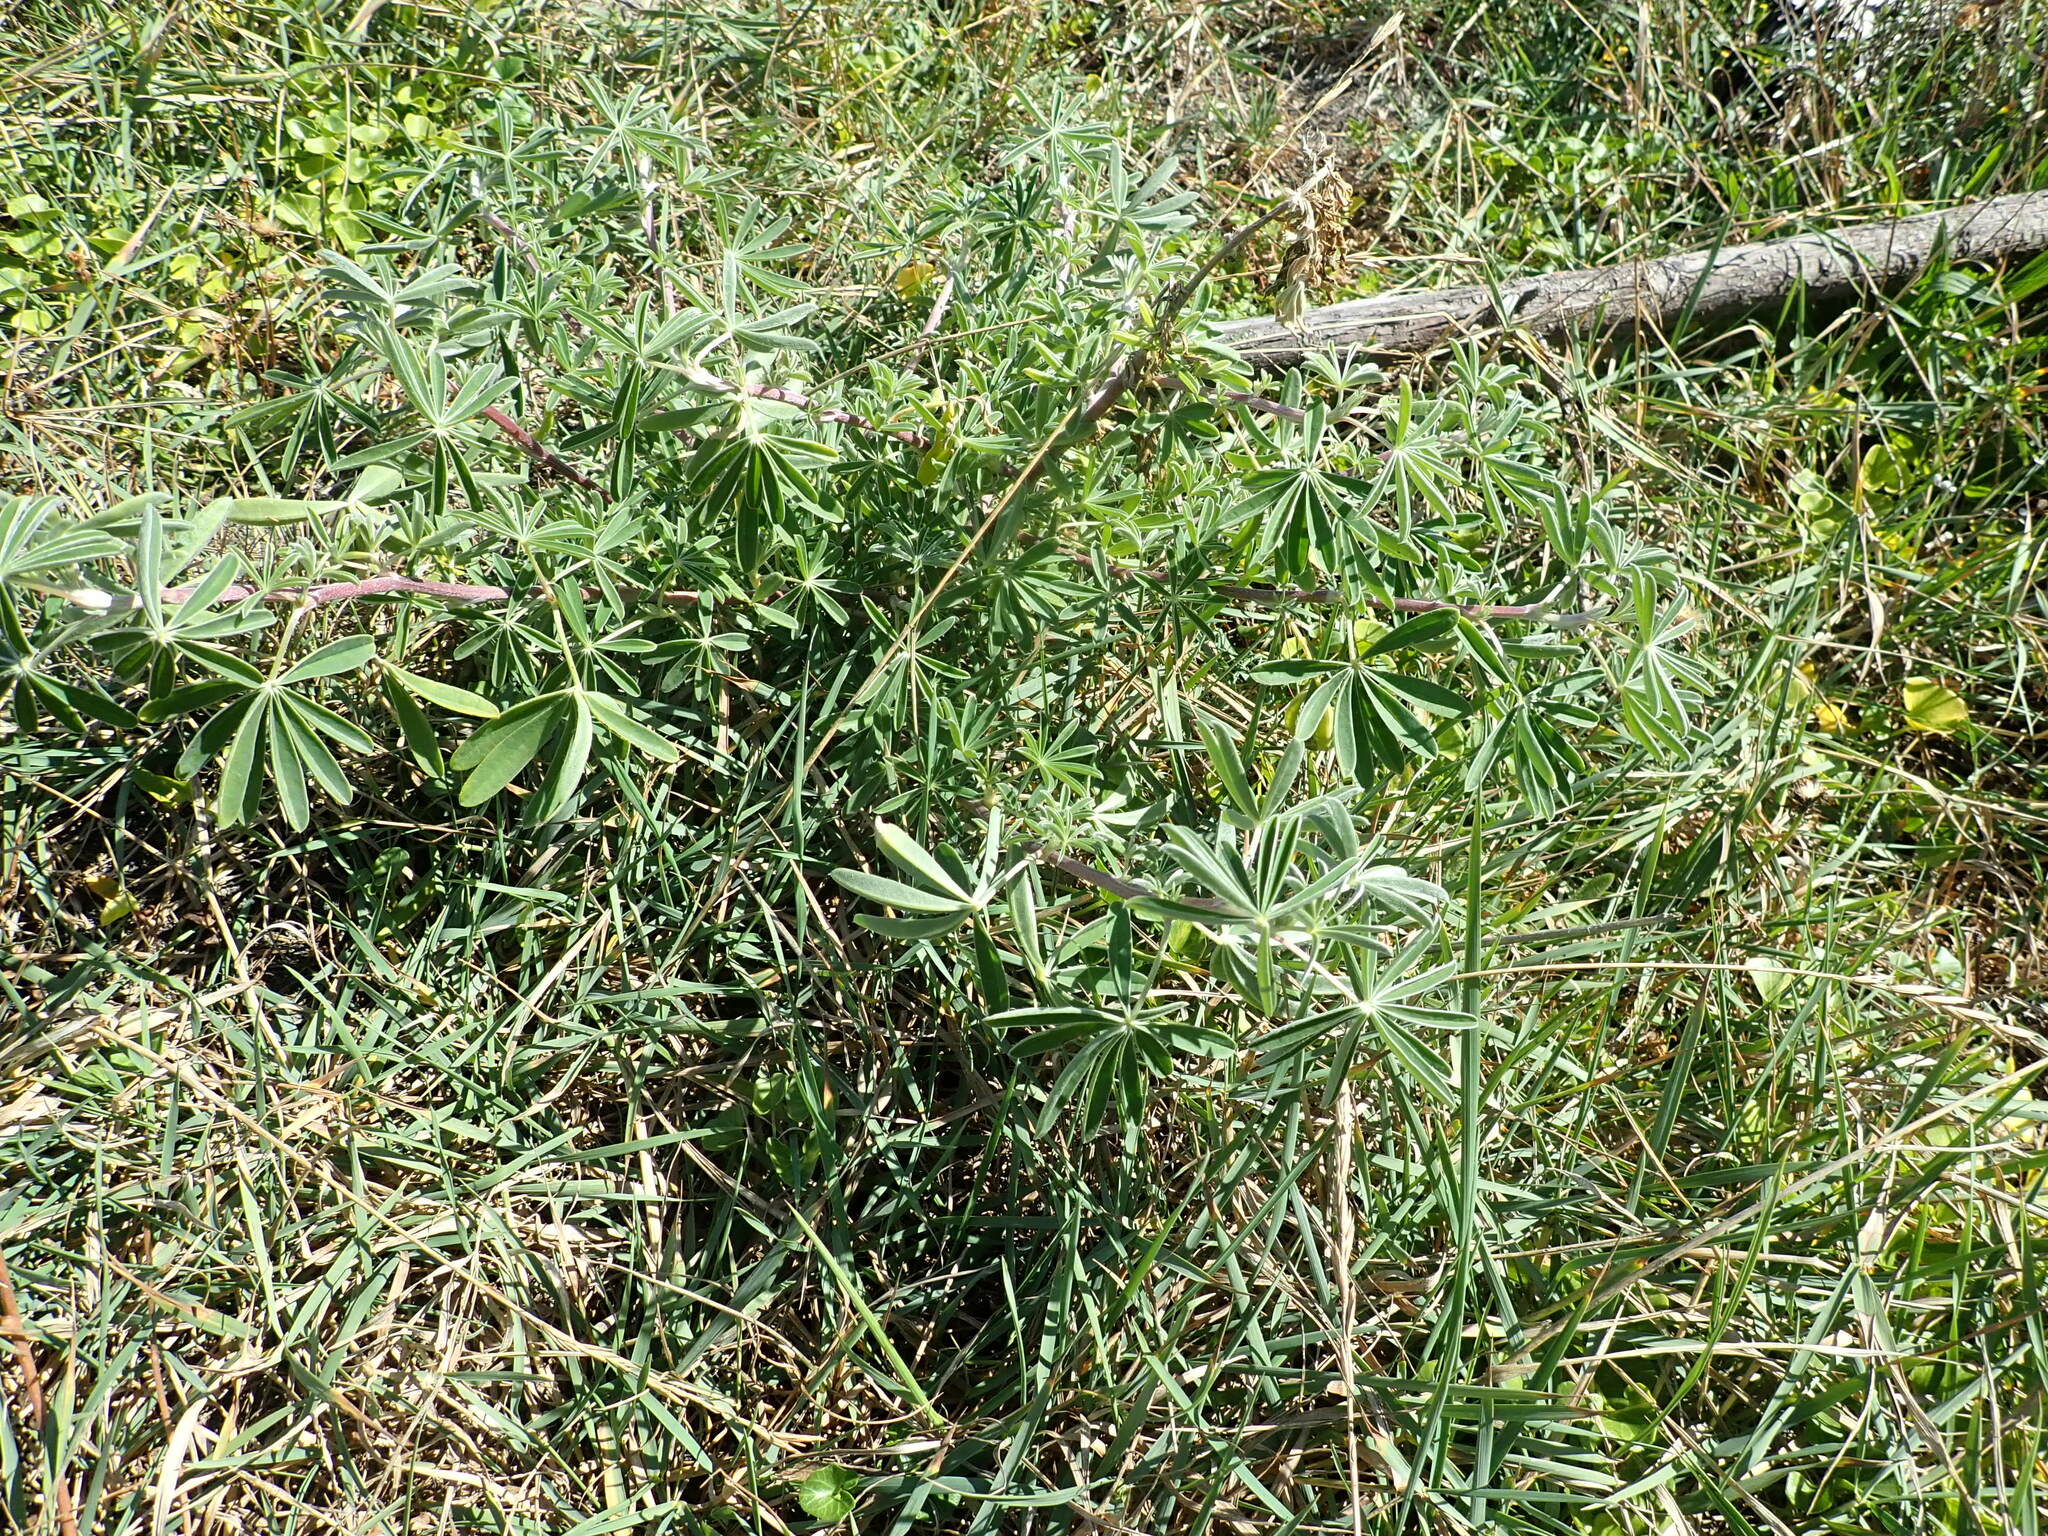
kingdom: Plantae
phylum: Tracheophyta
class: Magnoliopsida
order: Fabales
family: Fabaceae
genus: Lupinus
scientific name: Lupinus arboreus
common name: Yellow bush lupine
